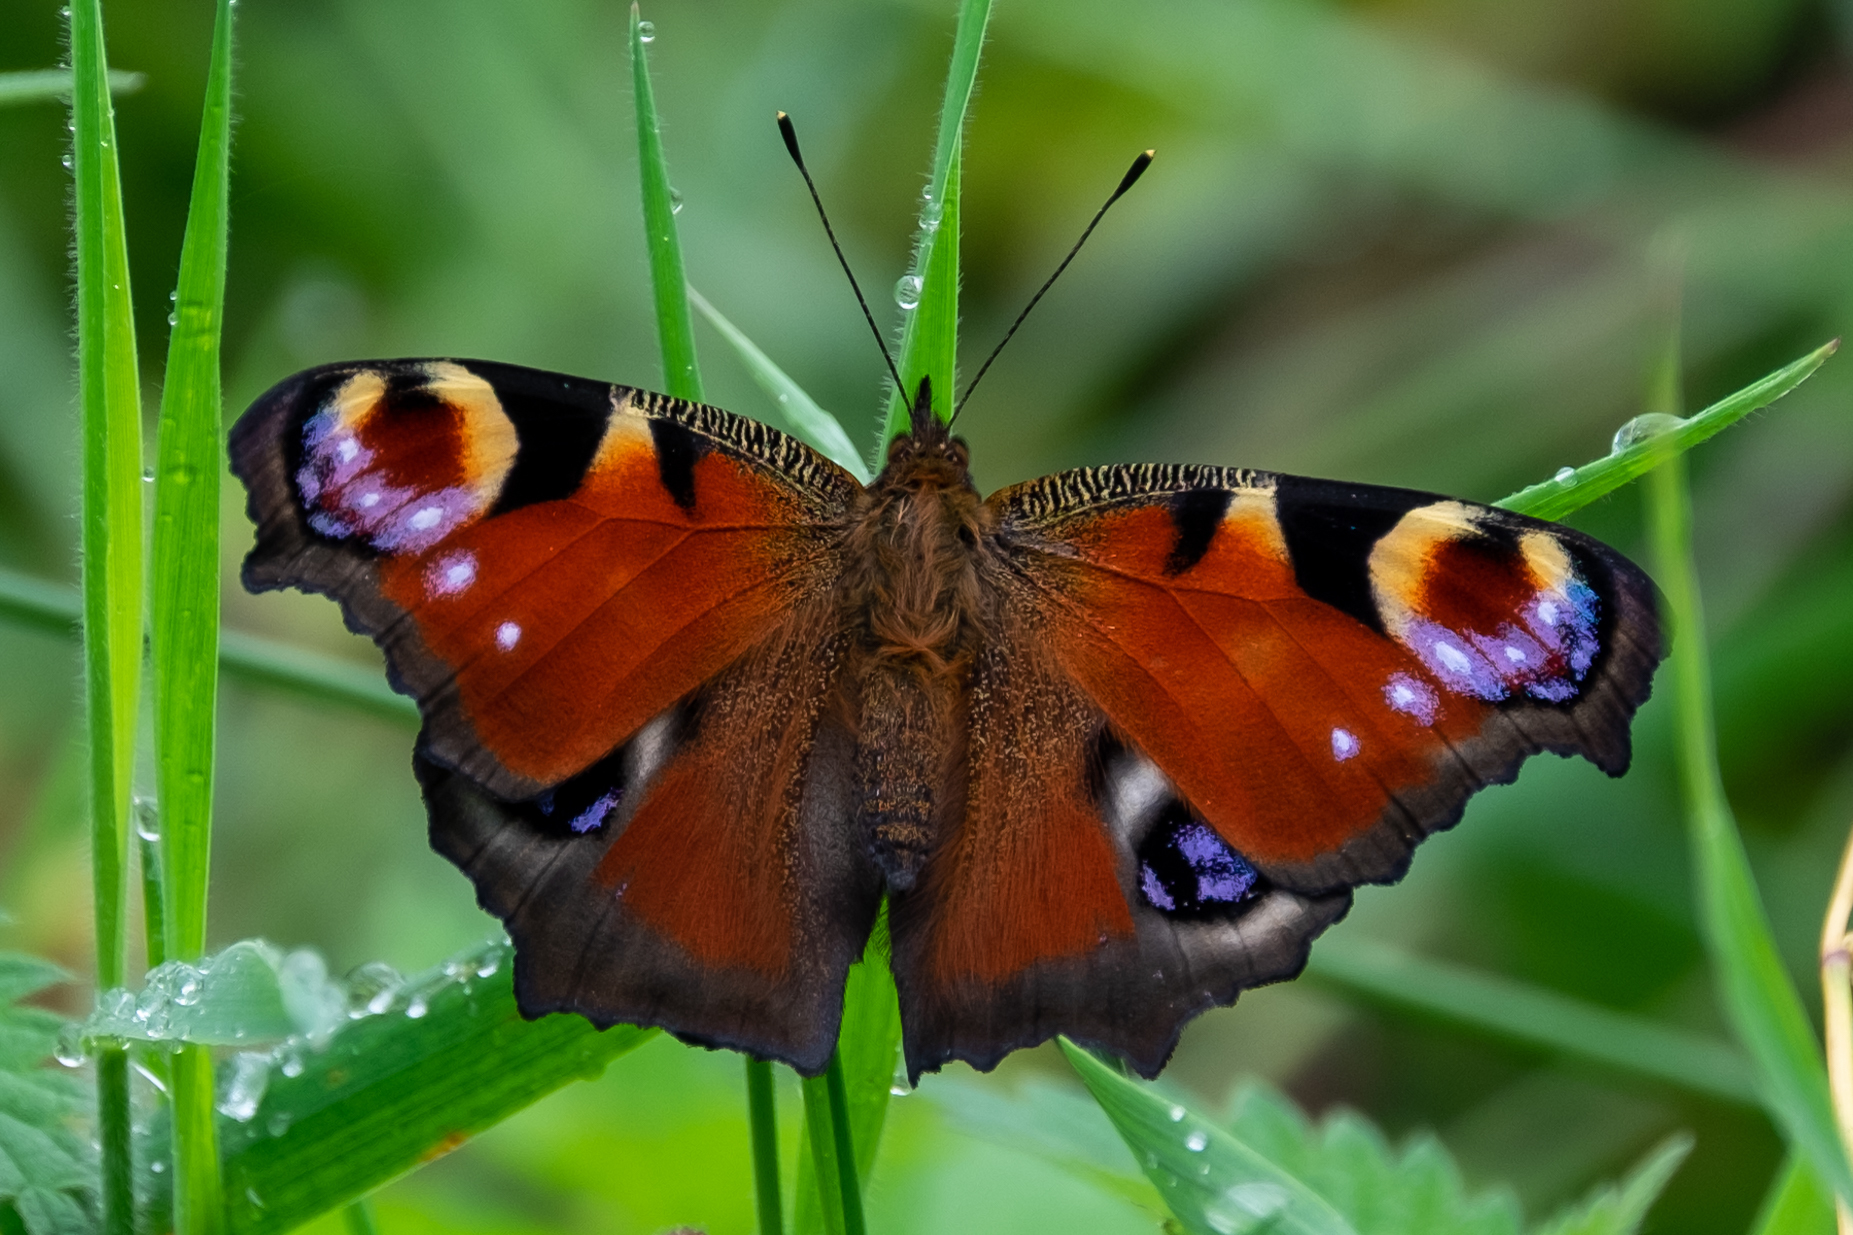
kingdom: Animalia
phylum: Arthropoda
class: Insecta
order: Lepidoptera
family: Nymphalidae
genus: Aglais
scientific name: Aglais io
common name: Peacock
